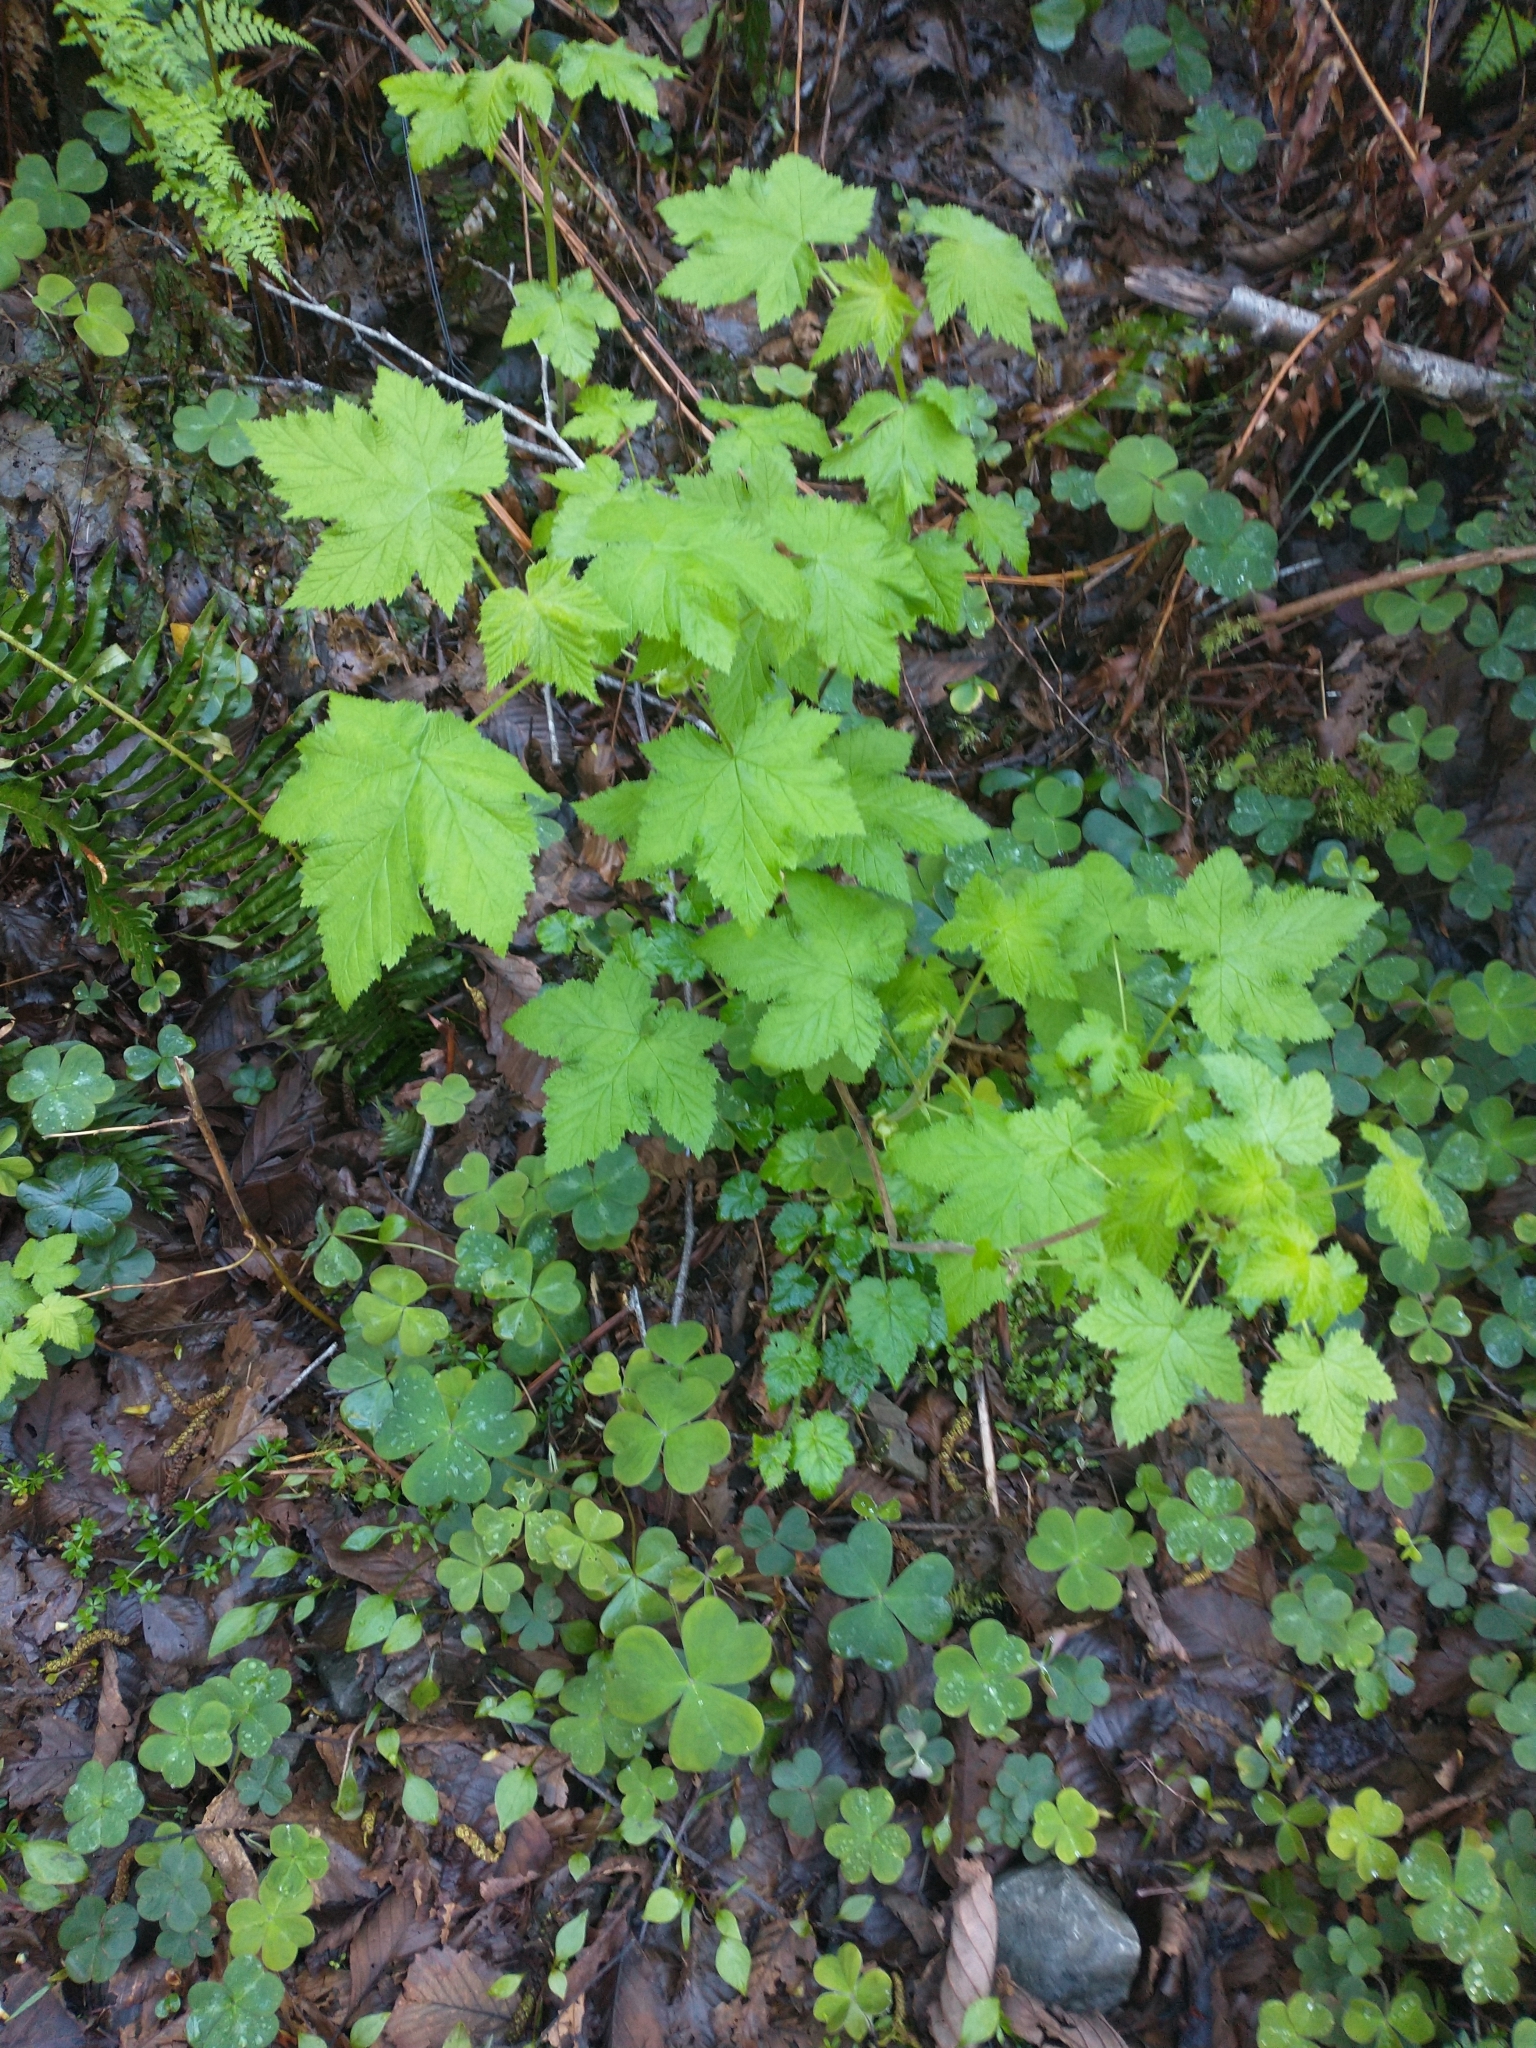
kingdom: Plantae
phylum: Tracheophyta
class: Magnoliopsida
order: Rosales
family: Rosaceae
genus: Rubus
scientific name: Rubus parviflorus
